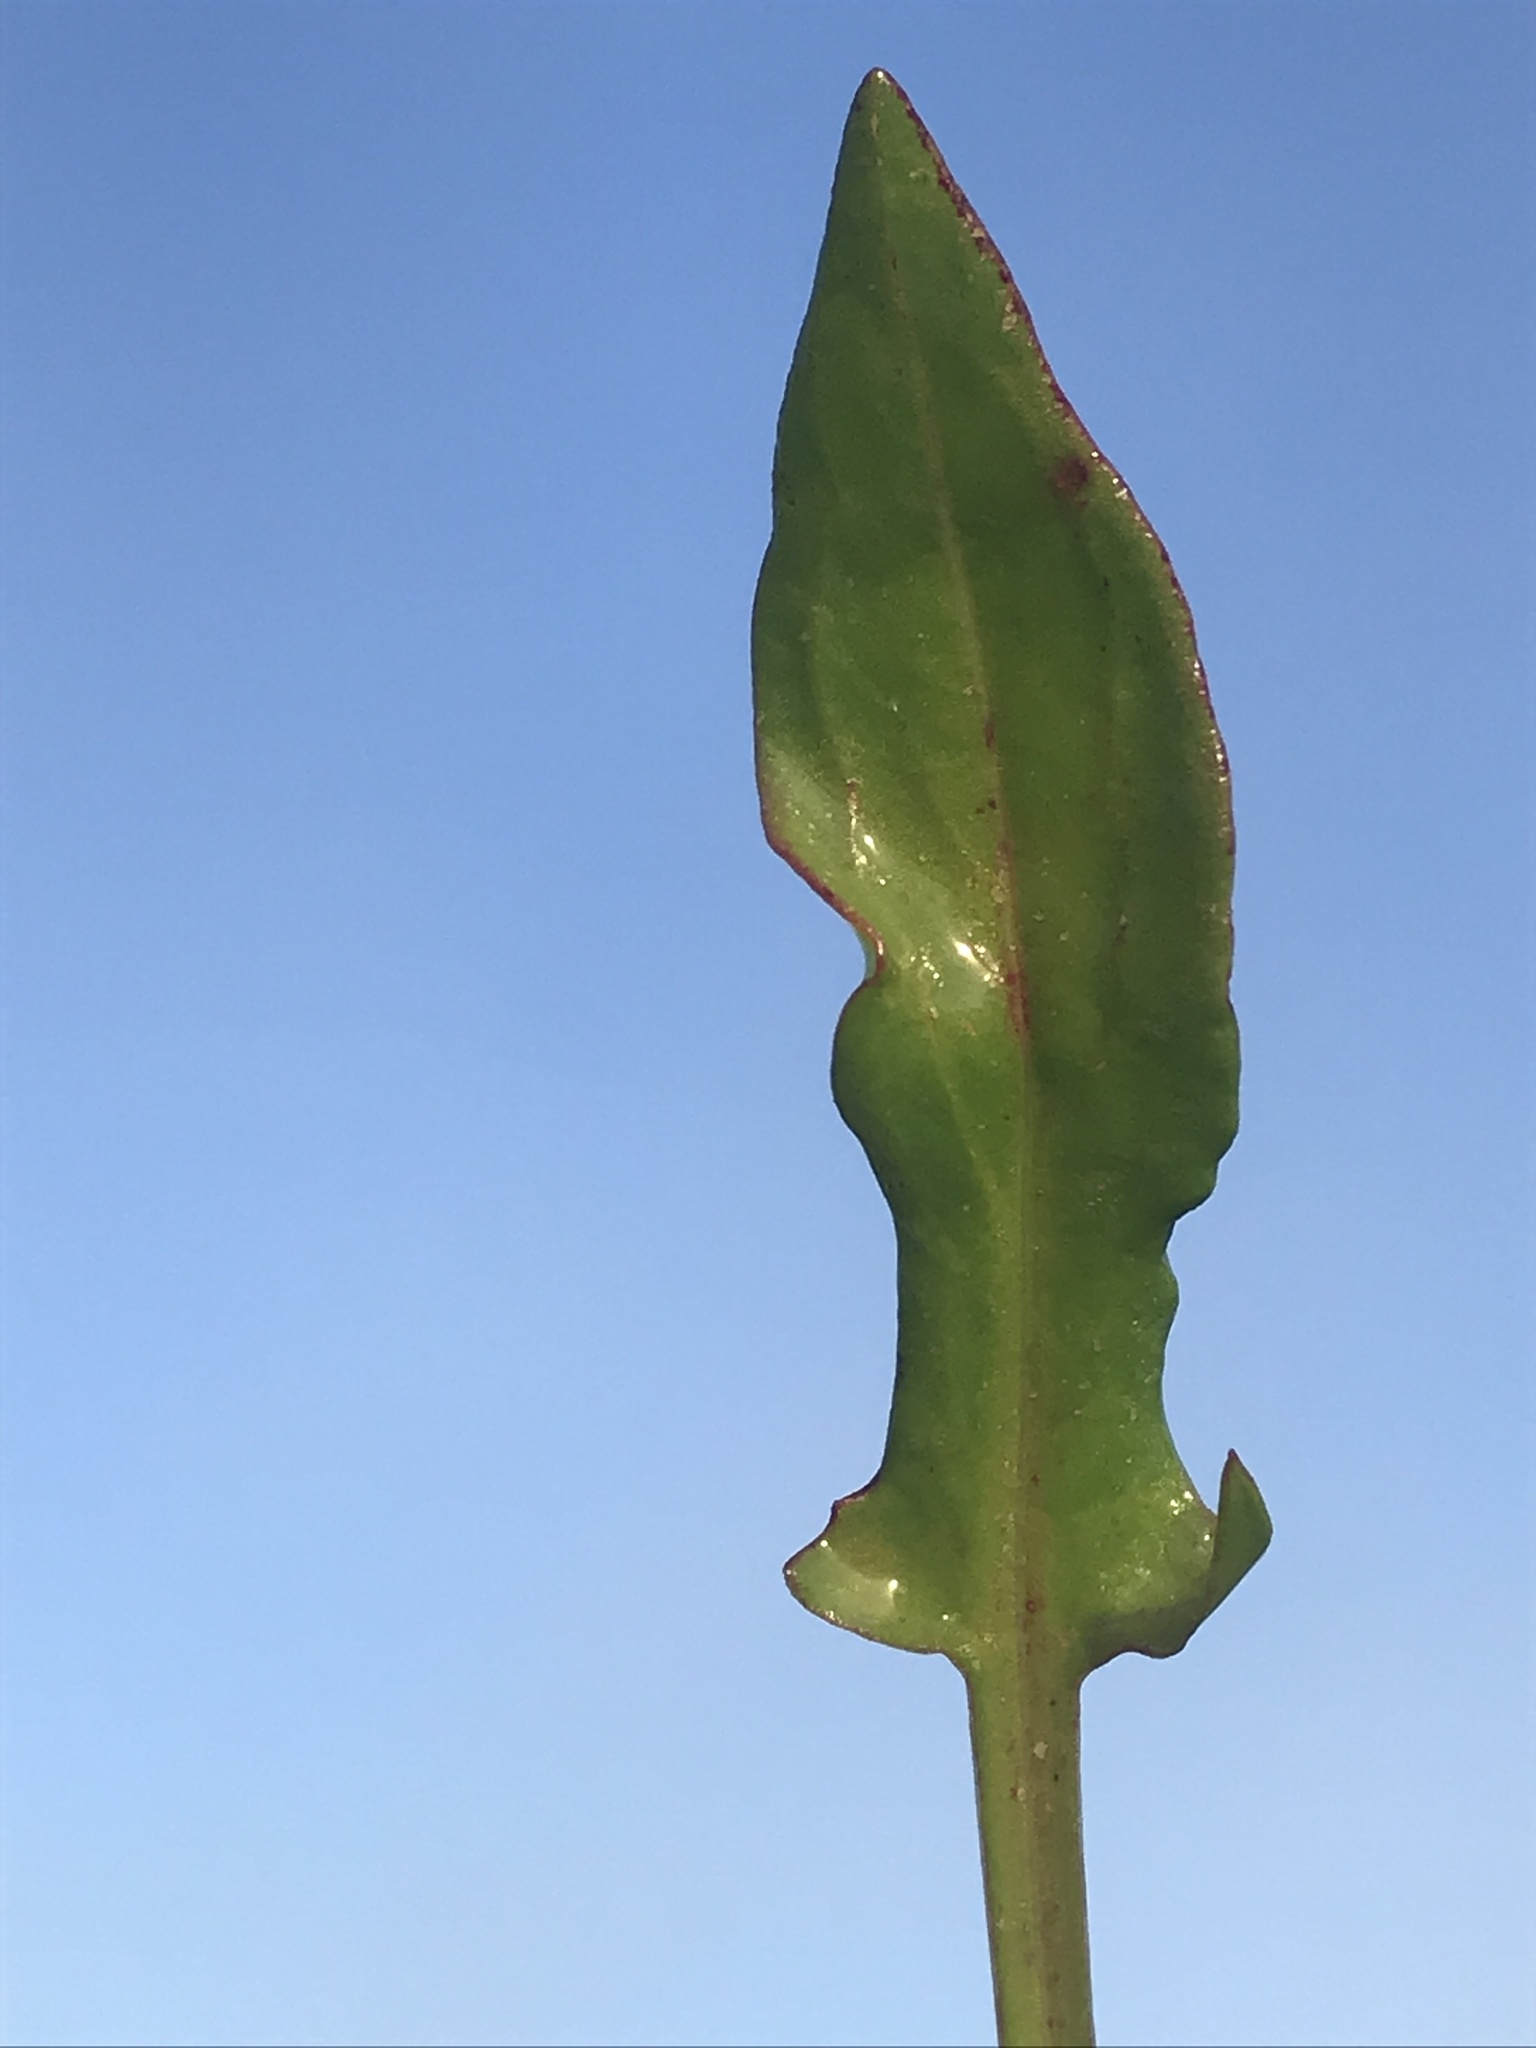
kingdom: Plantae
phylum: Tracheophyta
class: Magnoliopsida
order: Caryophyllales
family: Polygonaceae
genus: Rumex
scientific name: Rumex acetosella
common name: Common sheep sorrel
